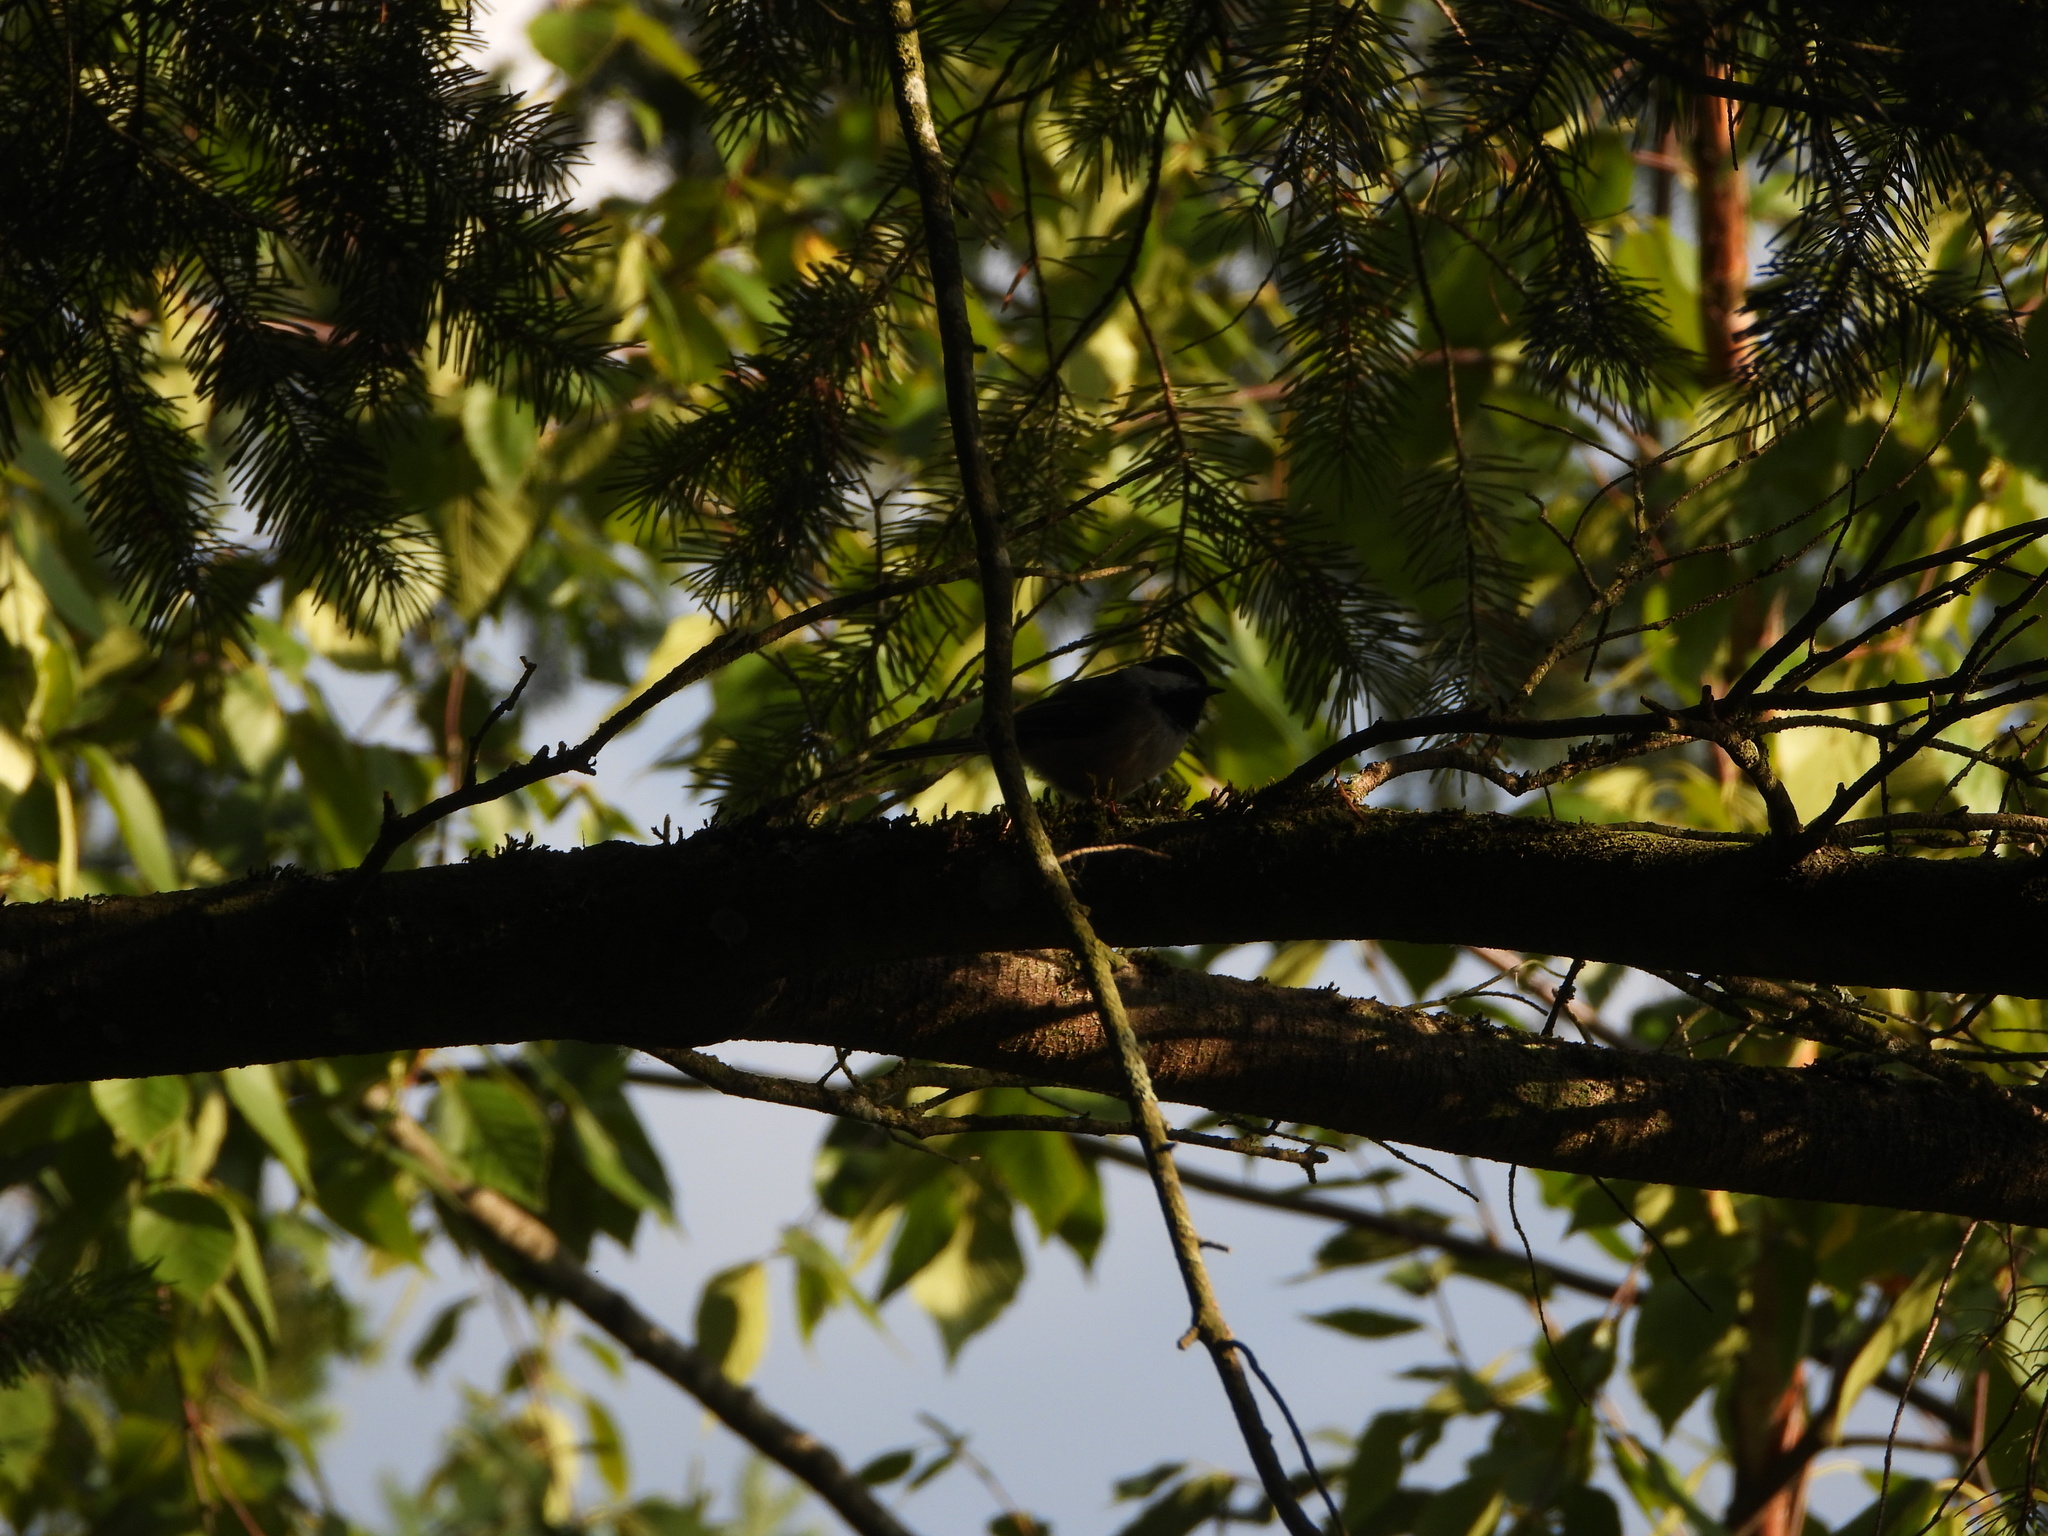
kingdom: Animalia
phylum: Chordata
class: Aves
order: Passeriformes
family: Paridae
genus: Poecile
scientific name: Poecile atricapillus
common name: Black-capped chickadee
